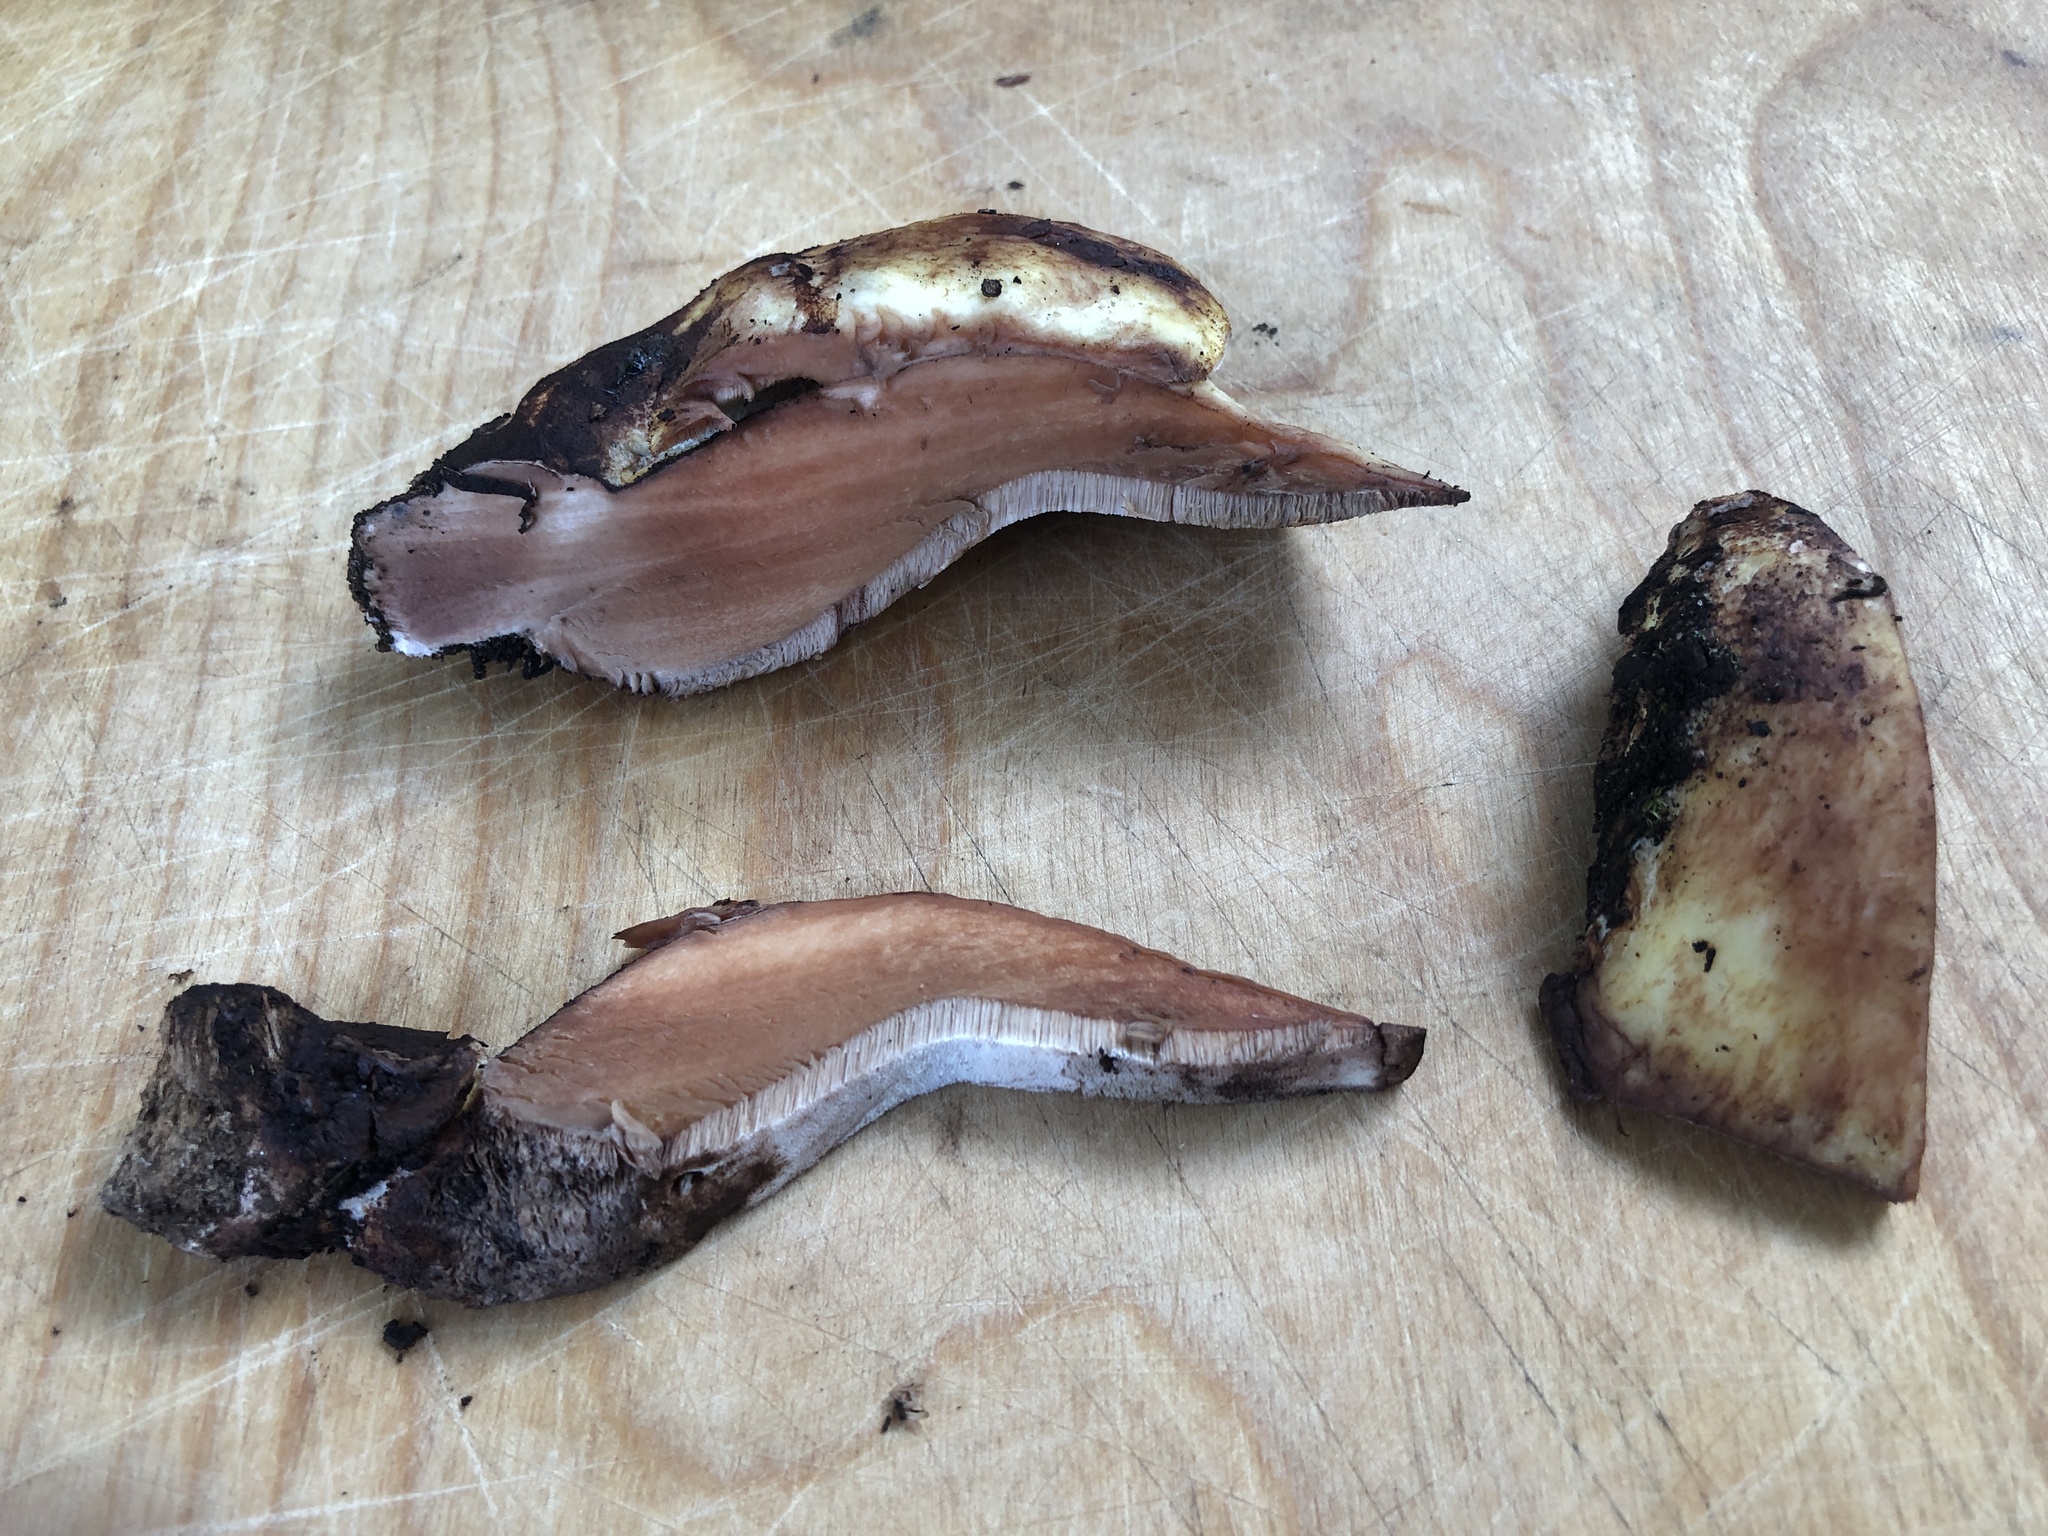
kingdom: Fungi
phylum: Basidiomycota
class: Agaricomycetes
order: Polyporales
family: Fomitopsidaceae
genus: Fomitopsis
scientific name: Fomitopsis
